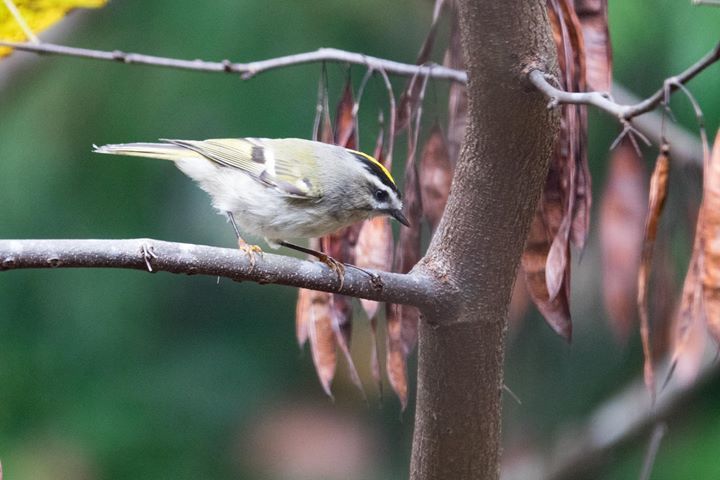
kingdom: Animalia
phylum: Chordata
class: Aves
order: Passeriformes
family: Regulidae
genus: Regulus
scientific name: Regulus satrapa
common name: Golden-crowned kinglet
